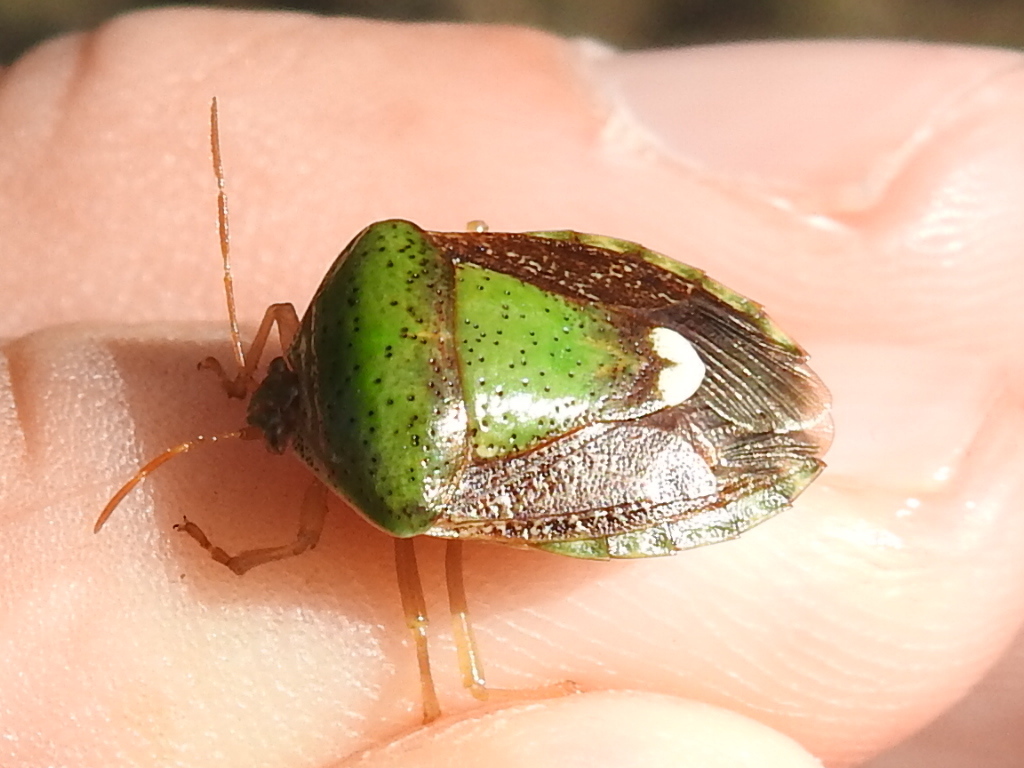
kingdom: Animalia
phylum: Arthropoda
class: Insecta
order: Hemiptera
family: Pentatomidae
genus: Edessa
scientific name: Edessa bifida
